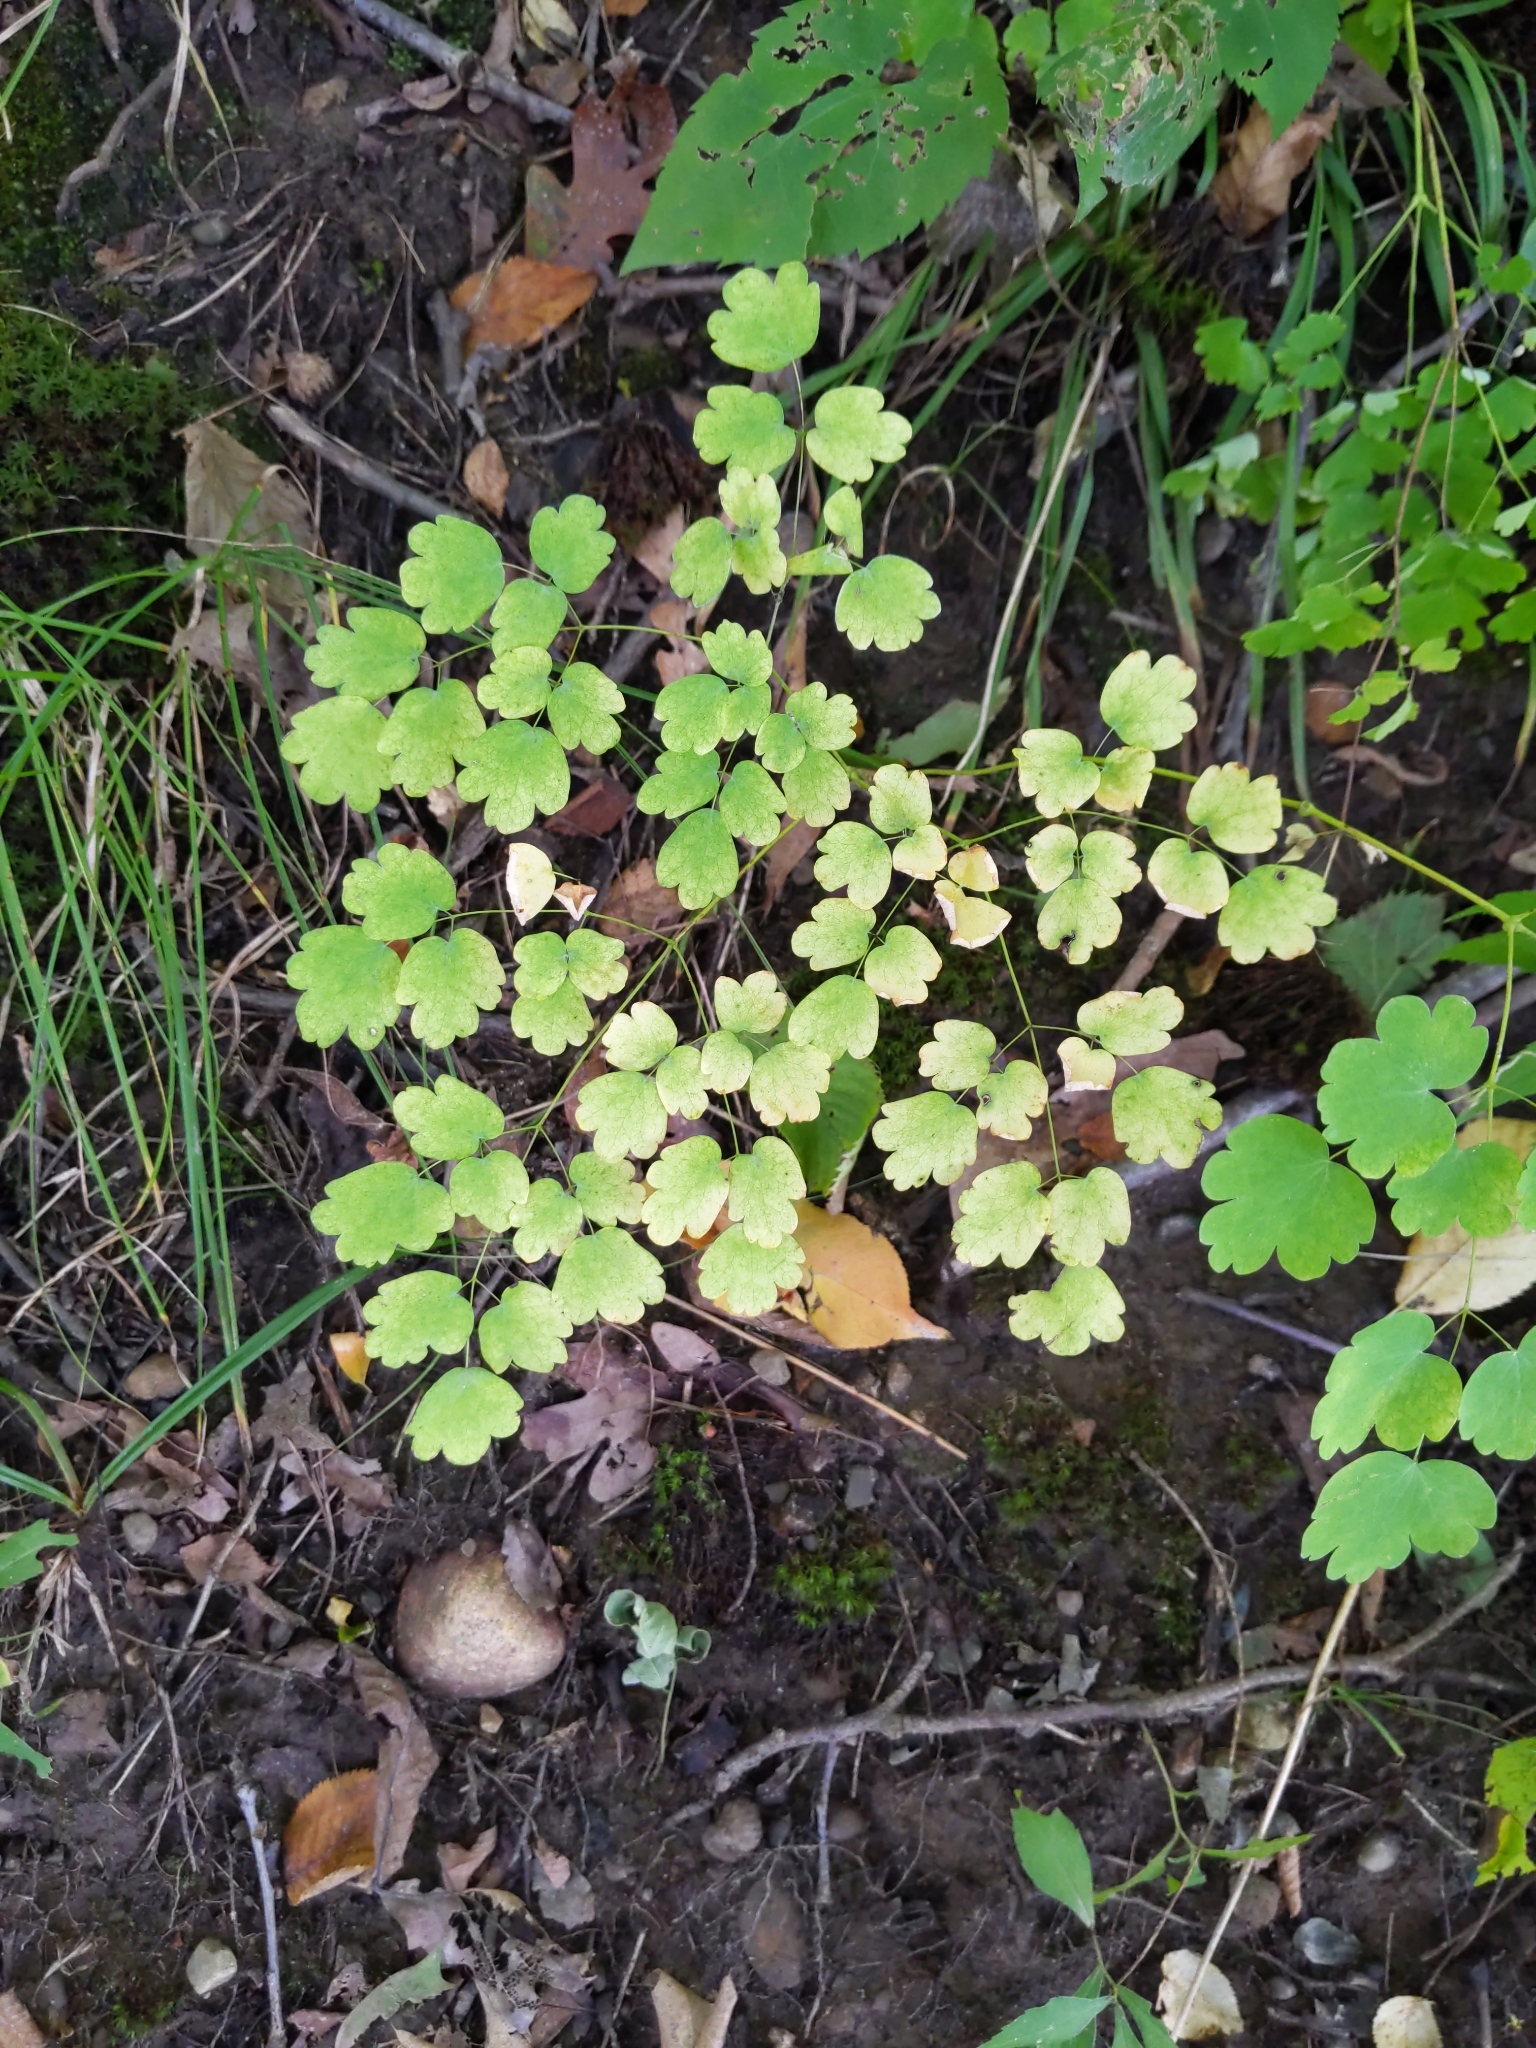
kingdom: Plantae
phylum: Tracheophyta
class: Magnoliopsida
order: Ranunculales
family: Ranunculaceae
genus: Thalictrum
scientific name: Thalictrum dioicum
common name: Early meadow-rue
